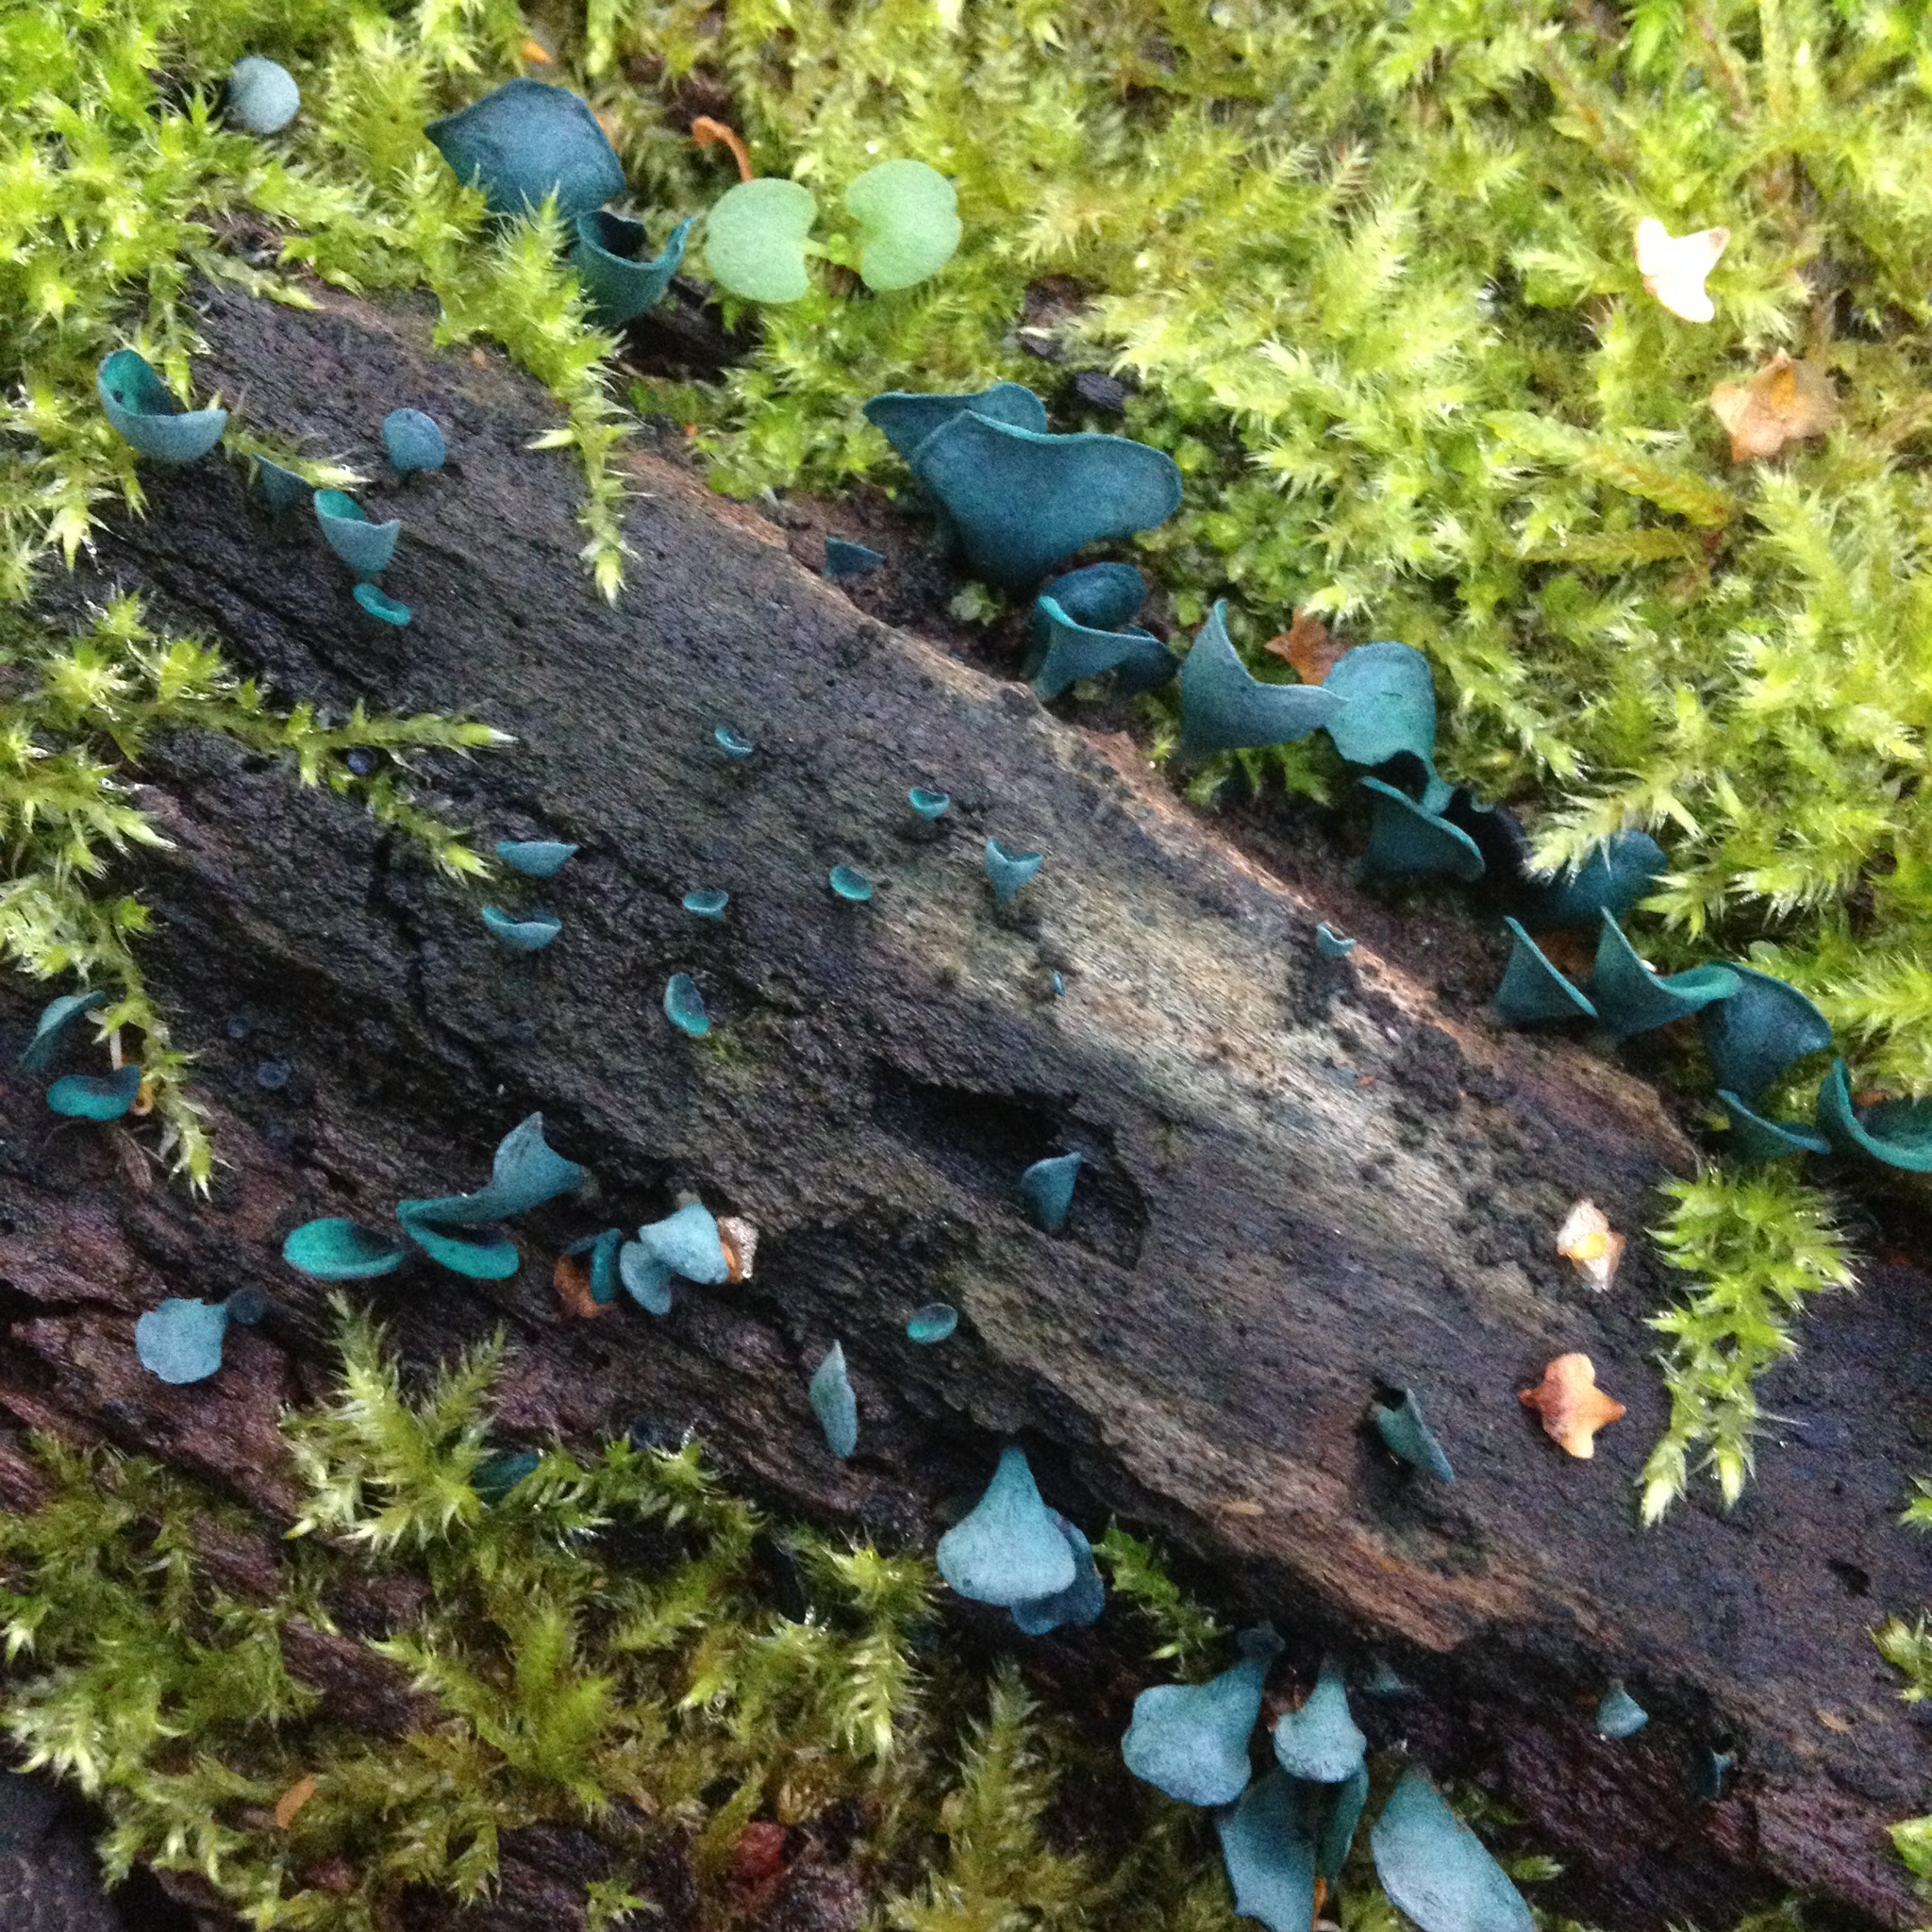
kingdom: Fungi
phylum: Ascomycota
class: Leotiomycetes
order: Helotiales
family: Chlorociboriaceae
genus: Chlorociboria
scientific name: Chlorociboria aeruginascens
